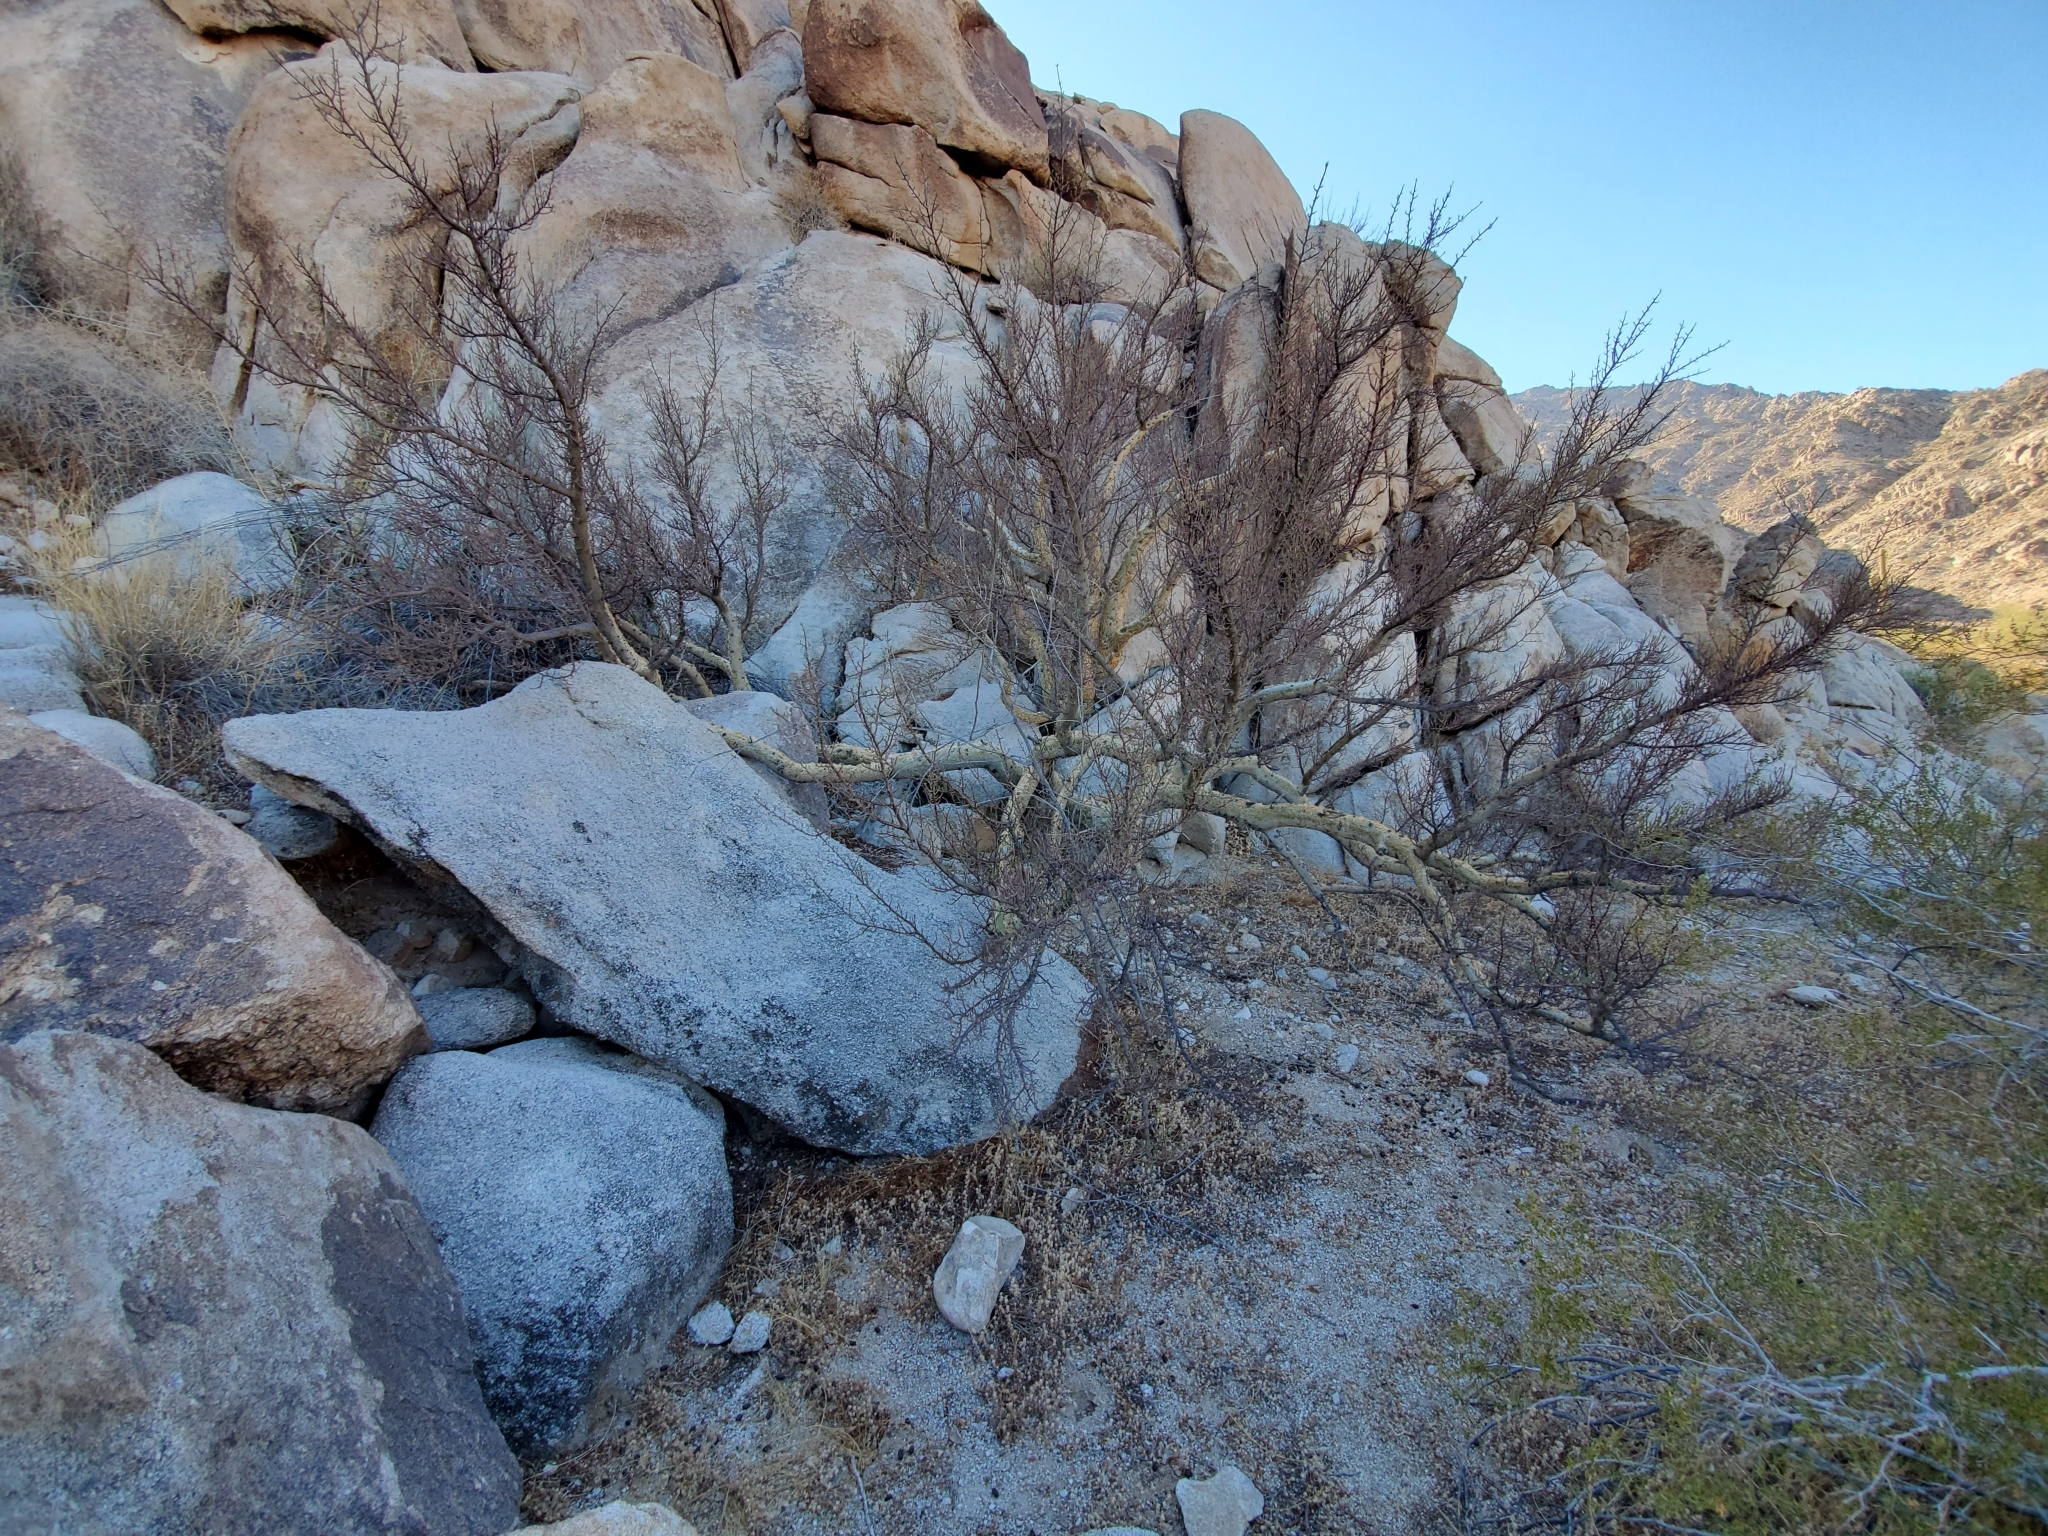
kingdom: Plantae
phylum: Tracheophyta
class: Magnoliopsida
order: Sapindales
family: Burseraceae
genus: Bursera
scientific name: Bursera microphylla
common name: Elephant tree
